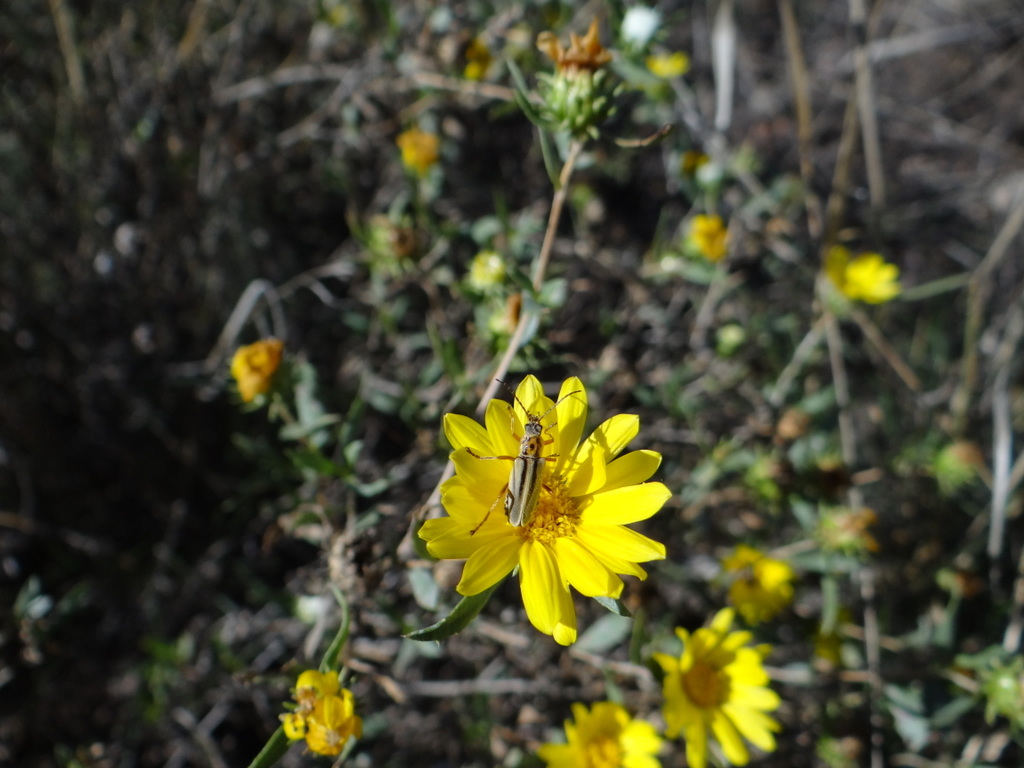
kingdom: Animalia
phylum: Arthropoda
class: Insecta
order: Coleoptera
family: Cantharidae
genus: Chauliognathus
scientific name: Chauliognathus
